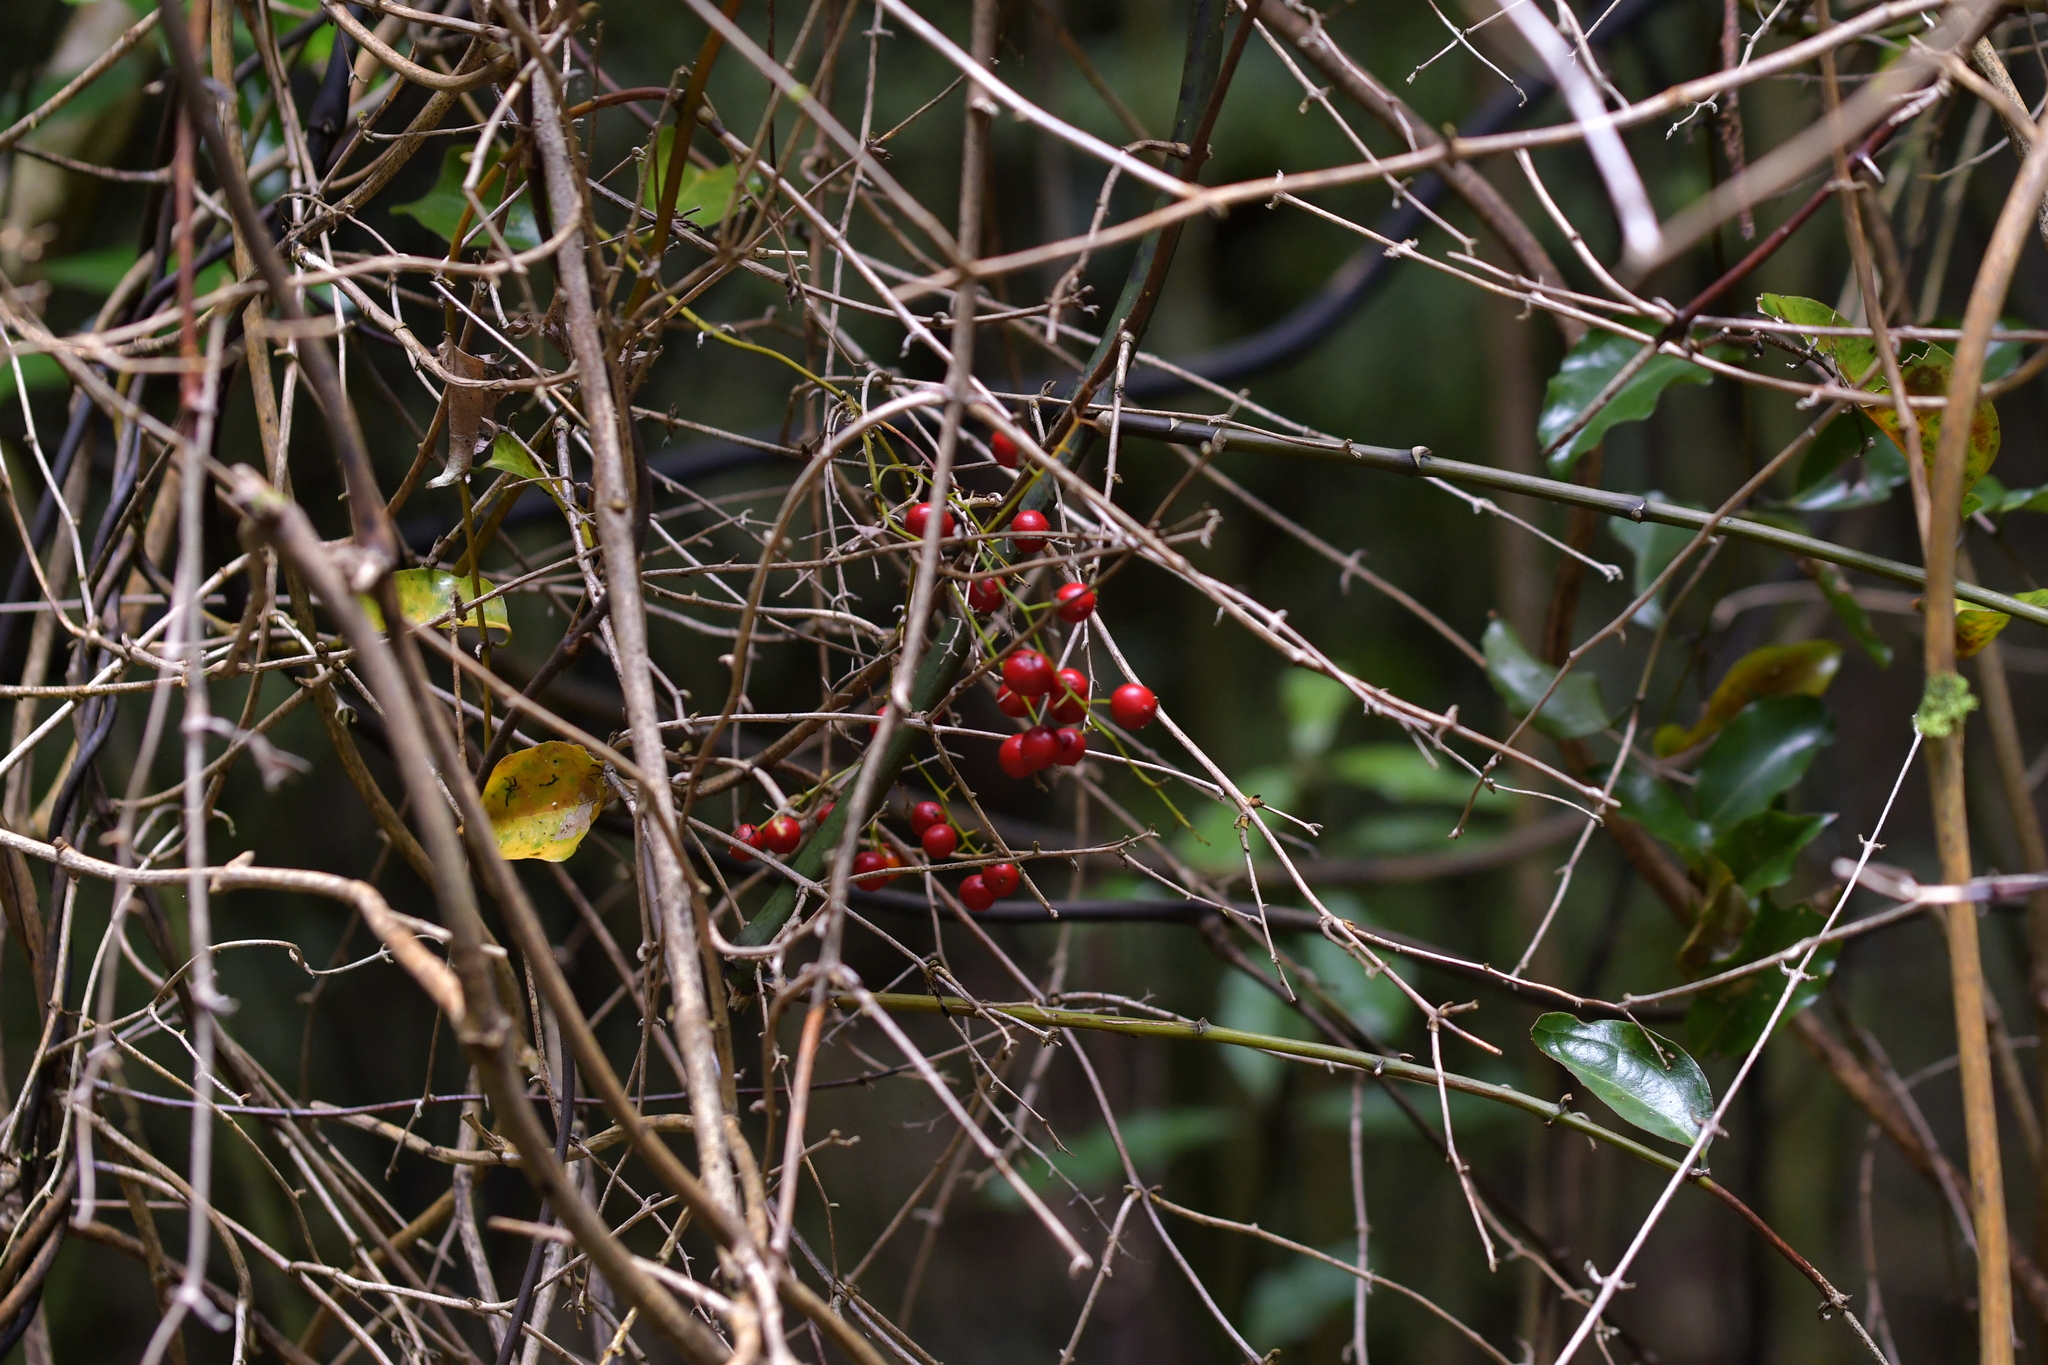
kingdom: Plantae
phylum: Tracheophyta
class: Liliopsida
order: Liliales
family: Ripogonaceae
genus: Ripogonum
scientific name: Ripogonum scandens
